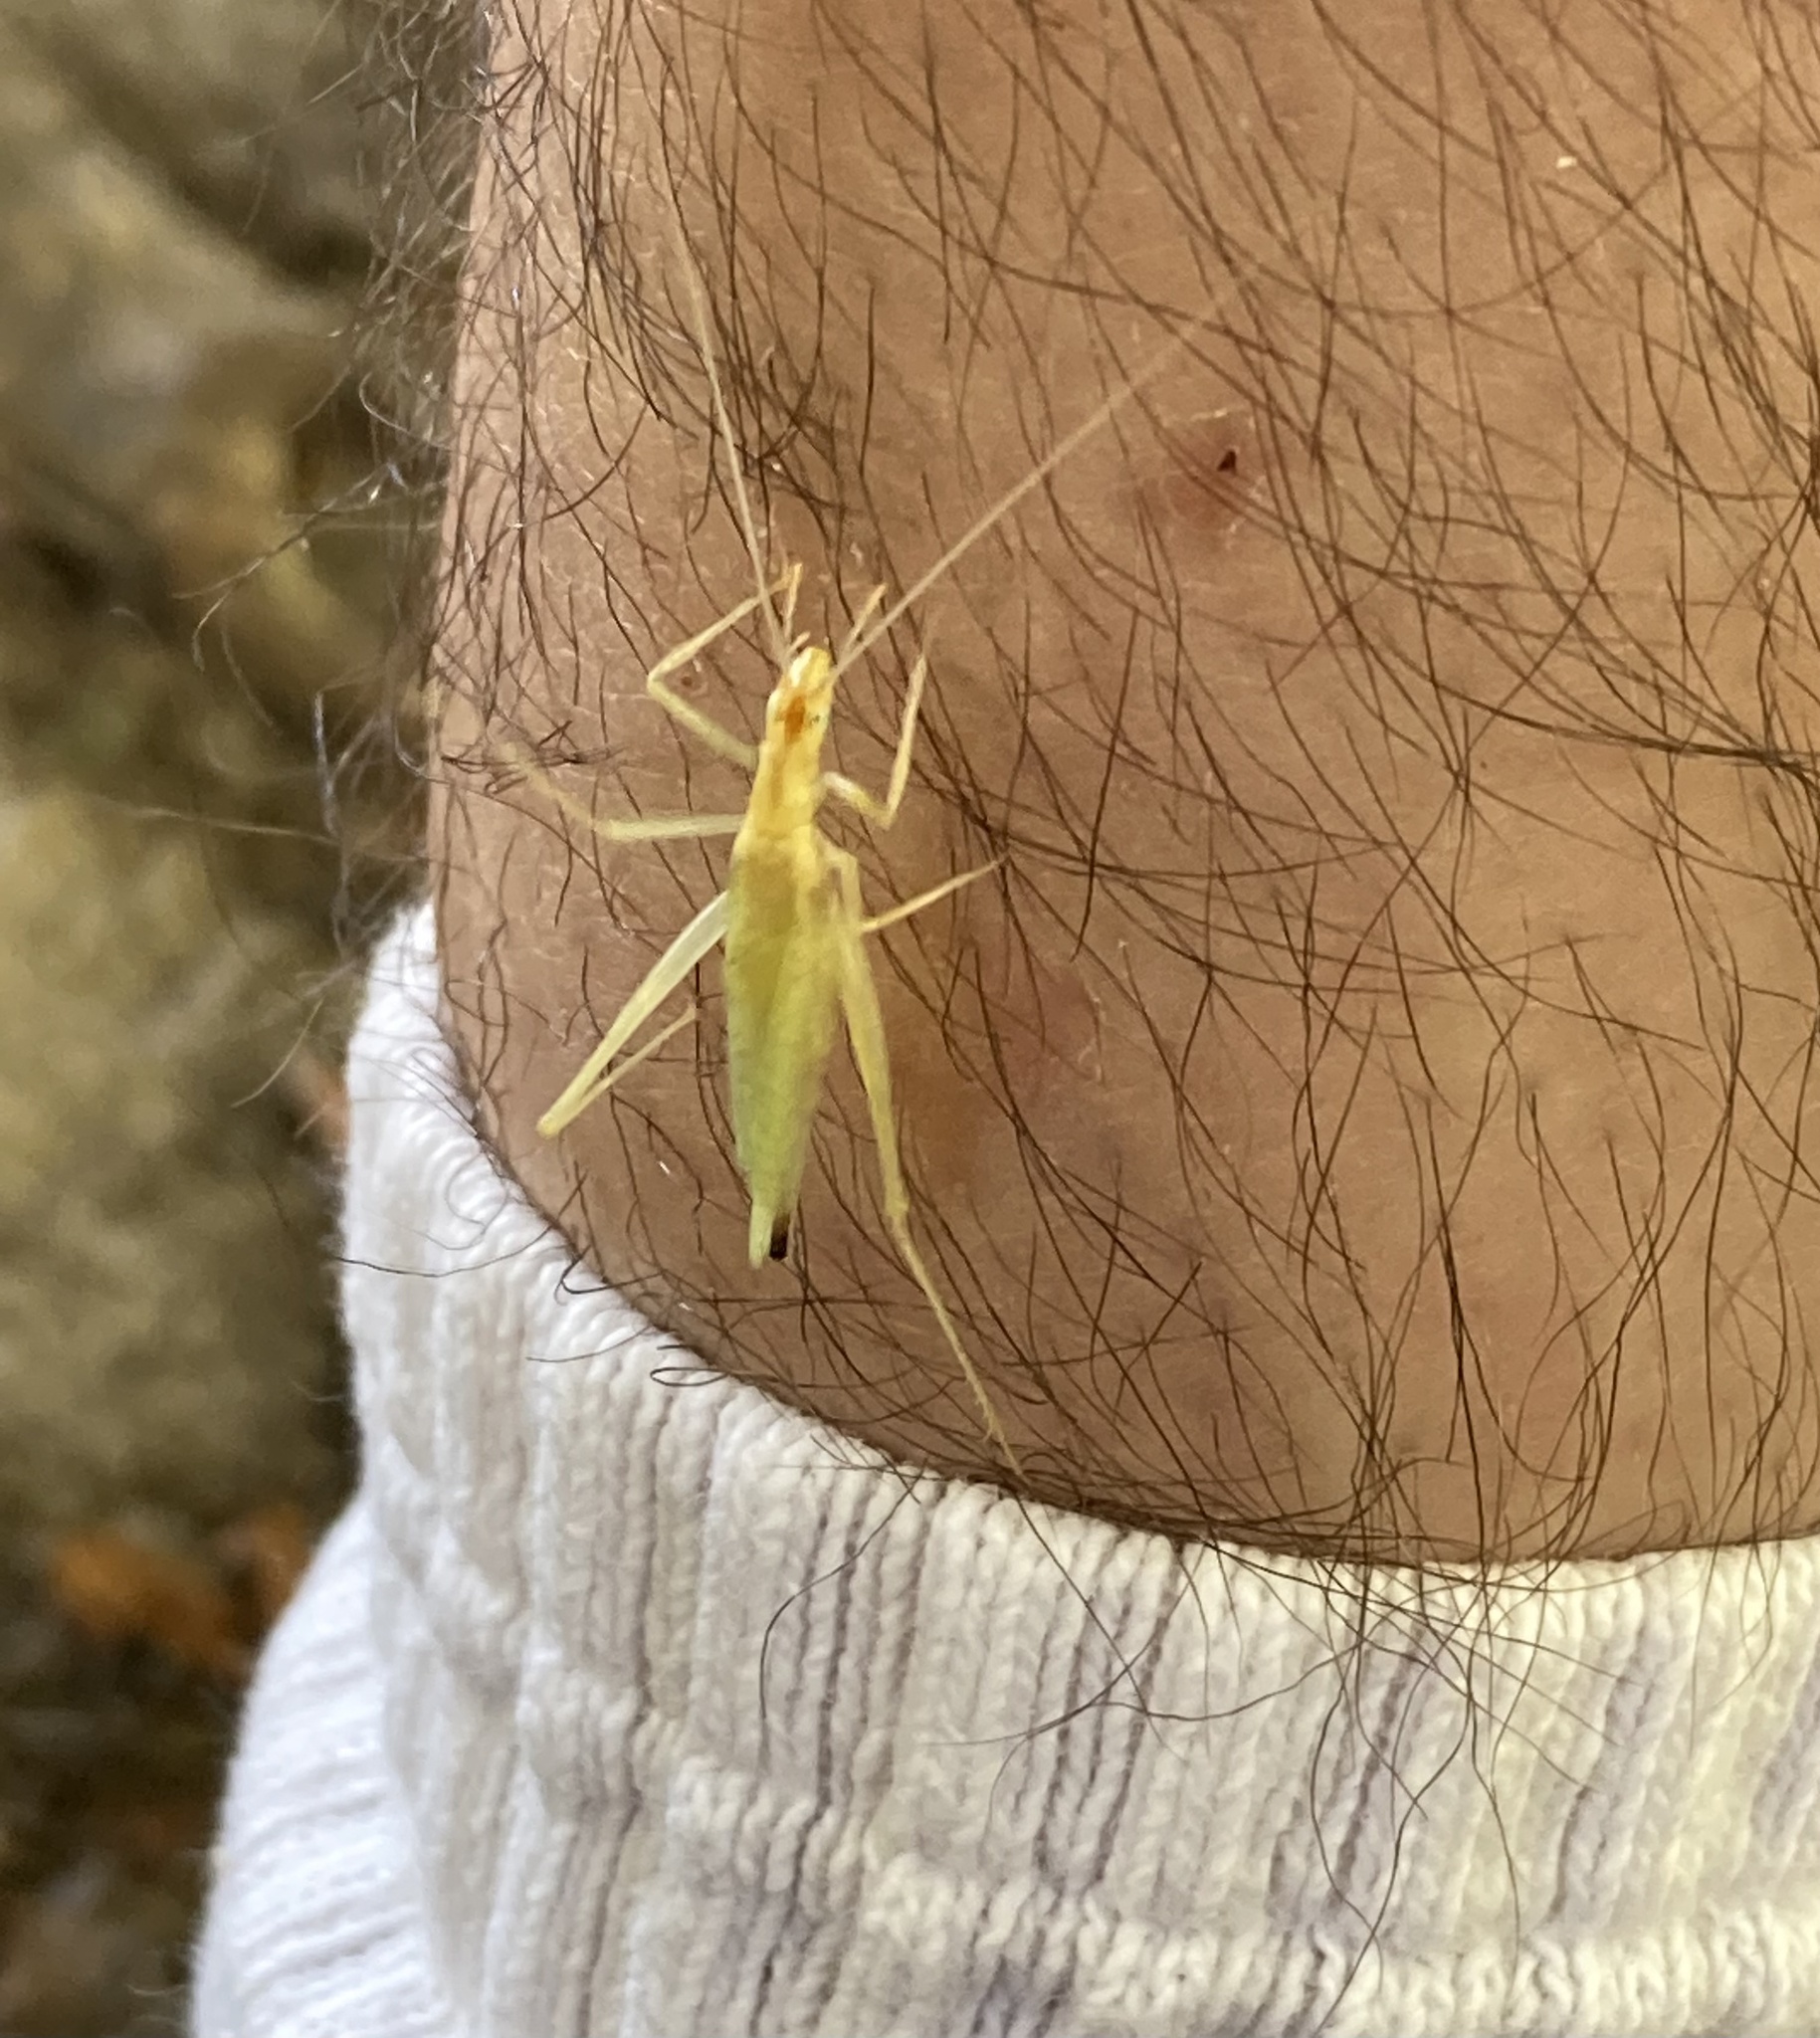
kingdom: Animalia
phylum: Arthropoda
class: Insecta
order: Orthoptera
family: Gryllidae
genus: Oecanthus
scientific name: Oecanthus niveus
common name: Narrow-winged tree cricket
